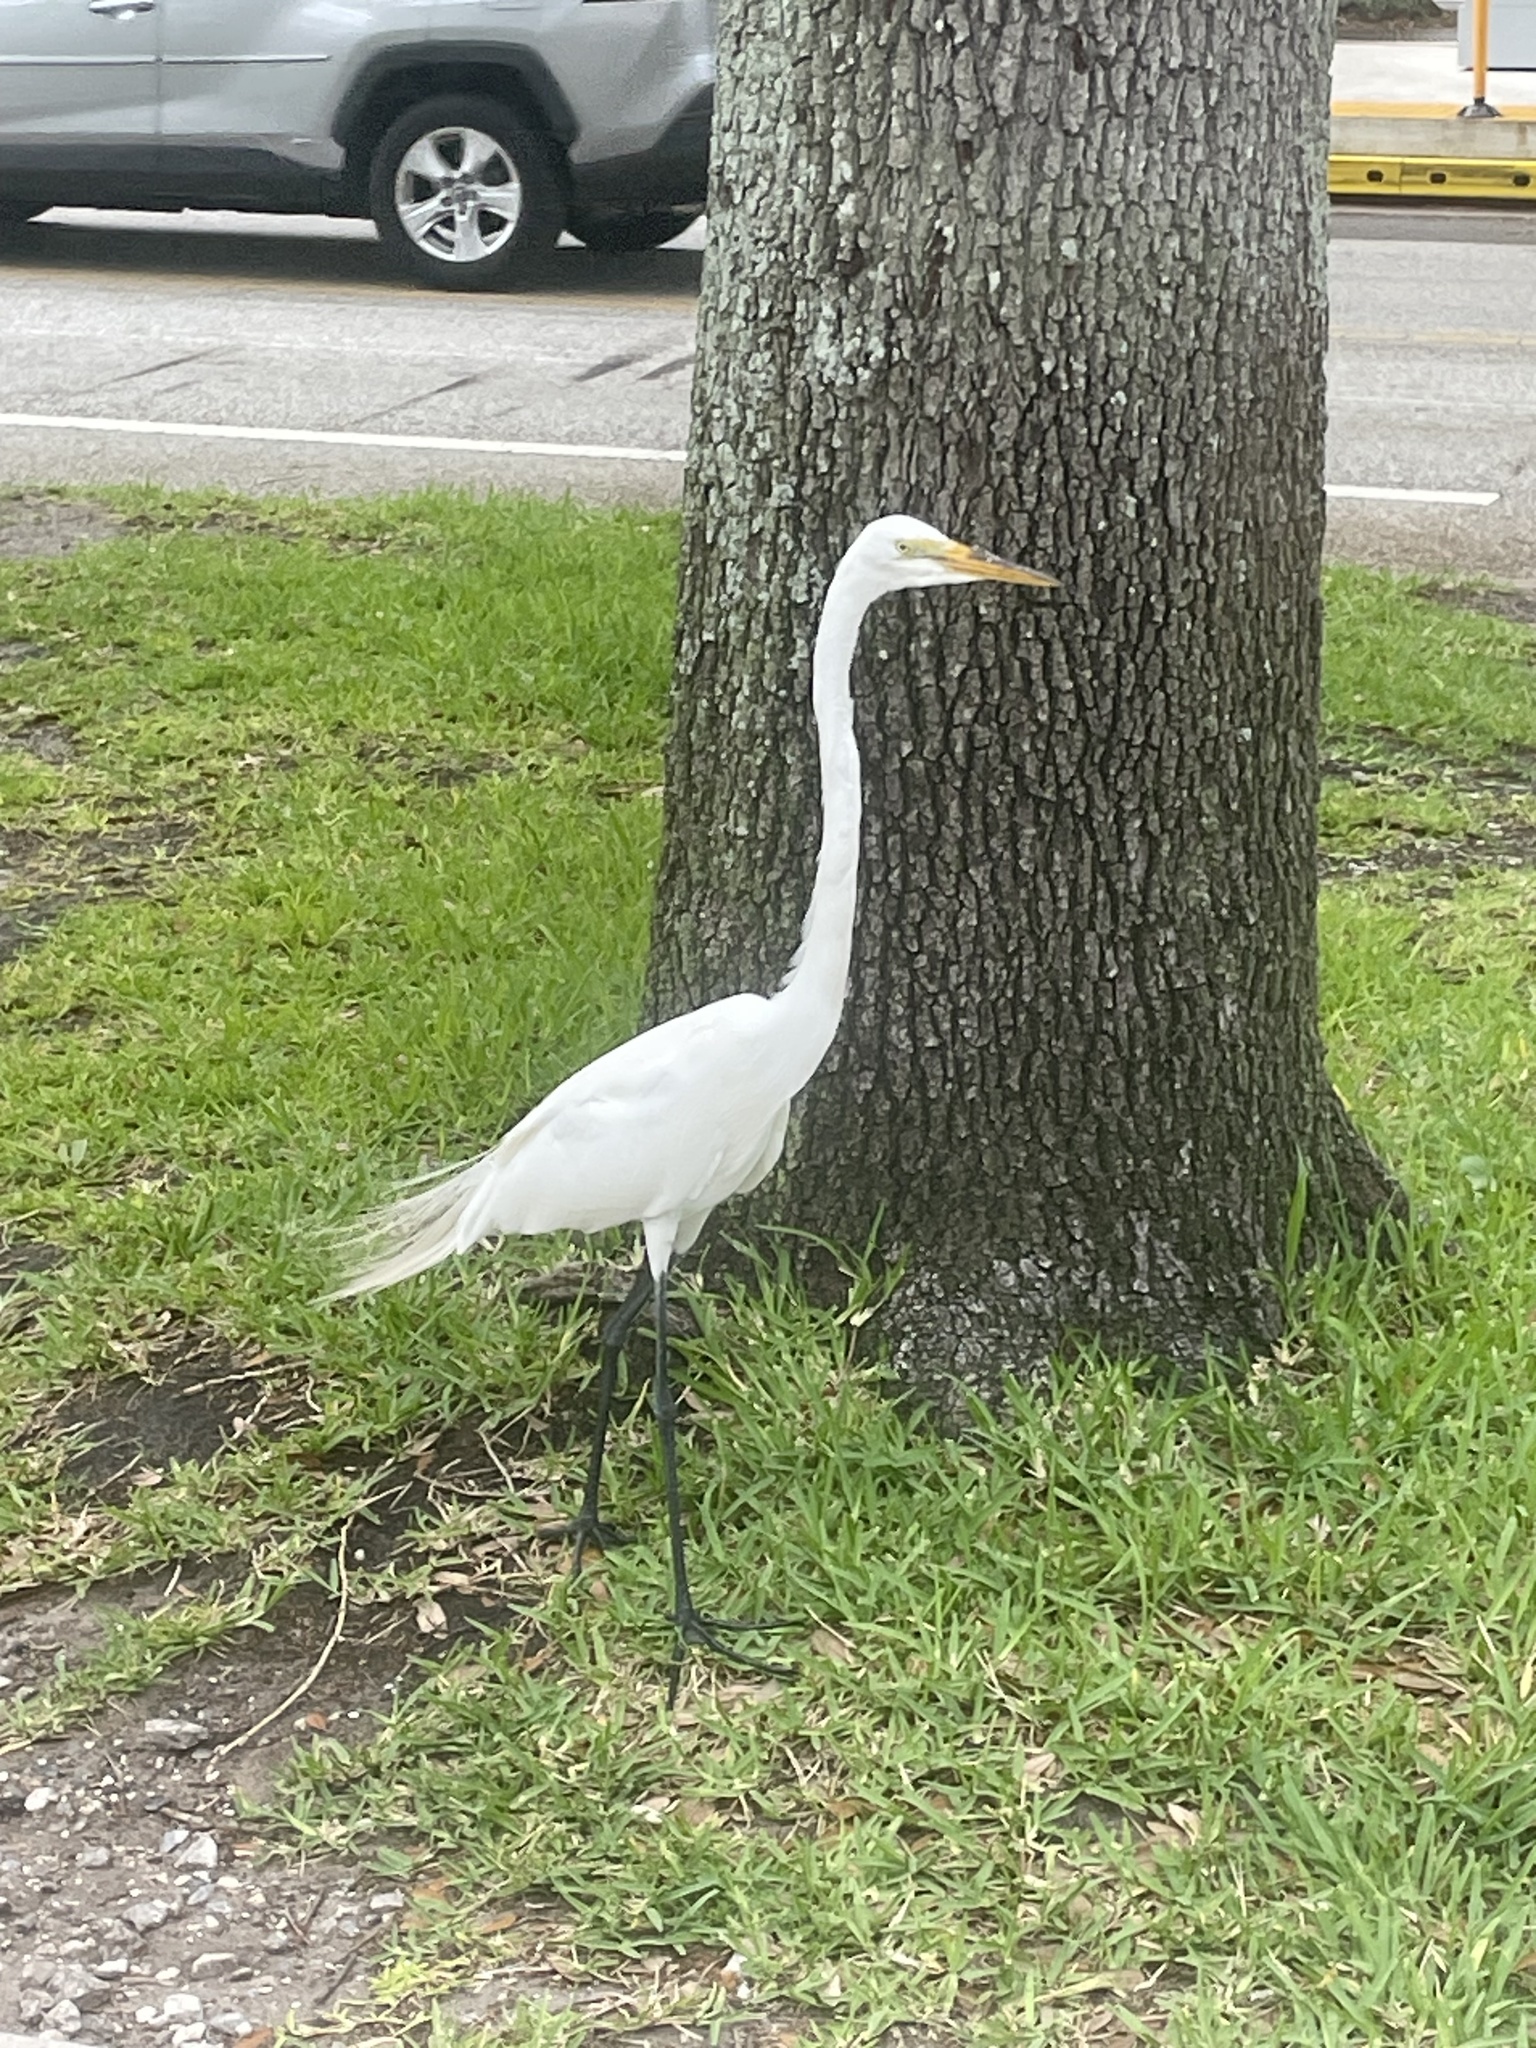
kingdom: Animalia
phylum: Chordata
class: Aves
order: Pelecaniformes
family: Ardeidae
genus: Ardea
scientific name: Ardea alba
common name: Great egret
